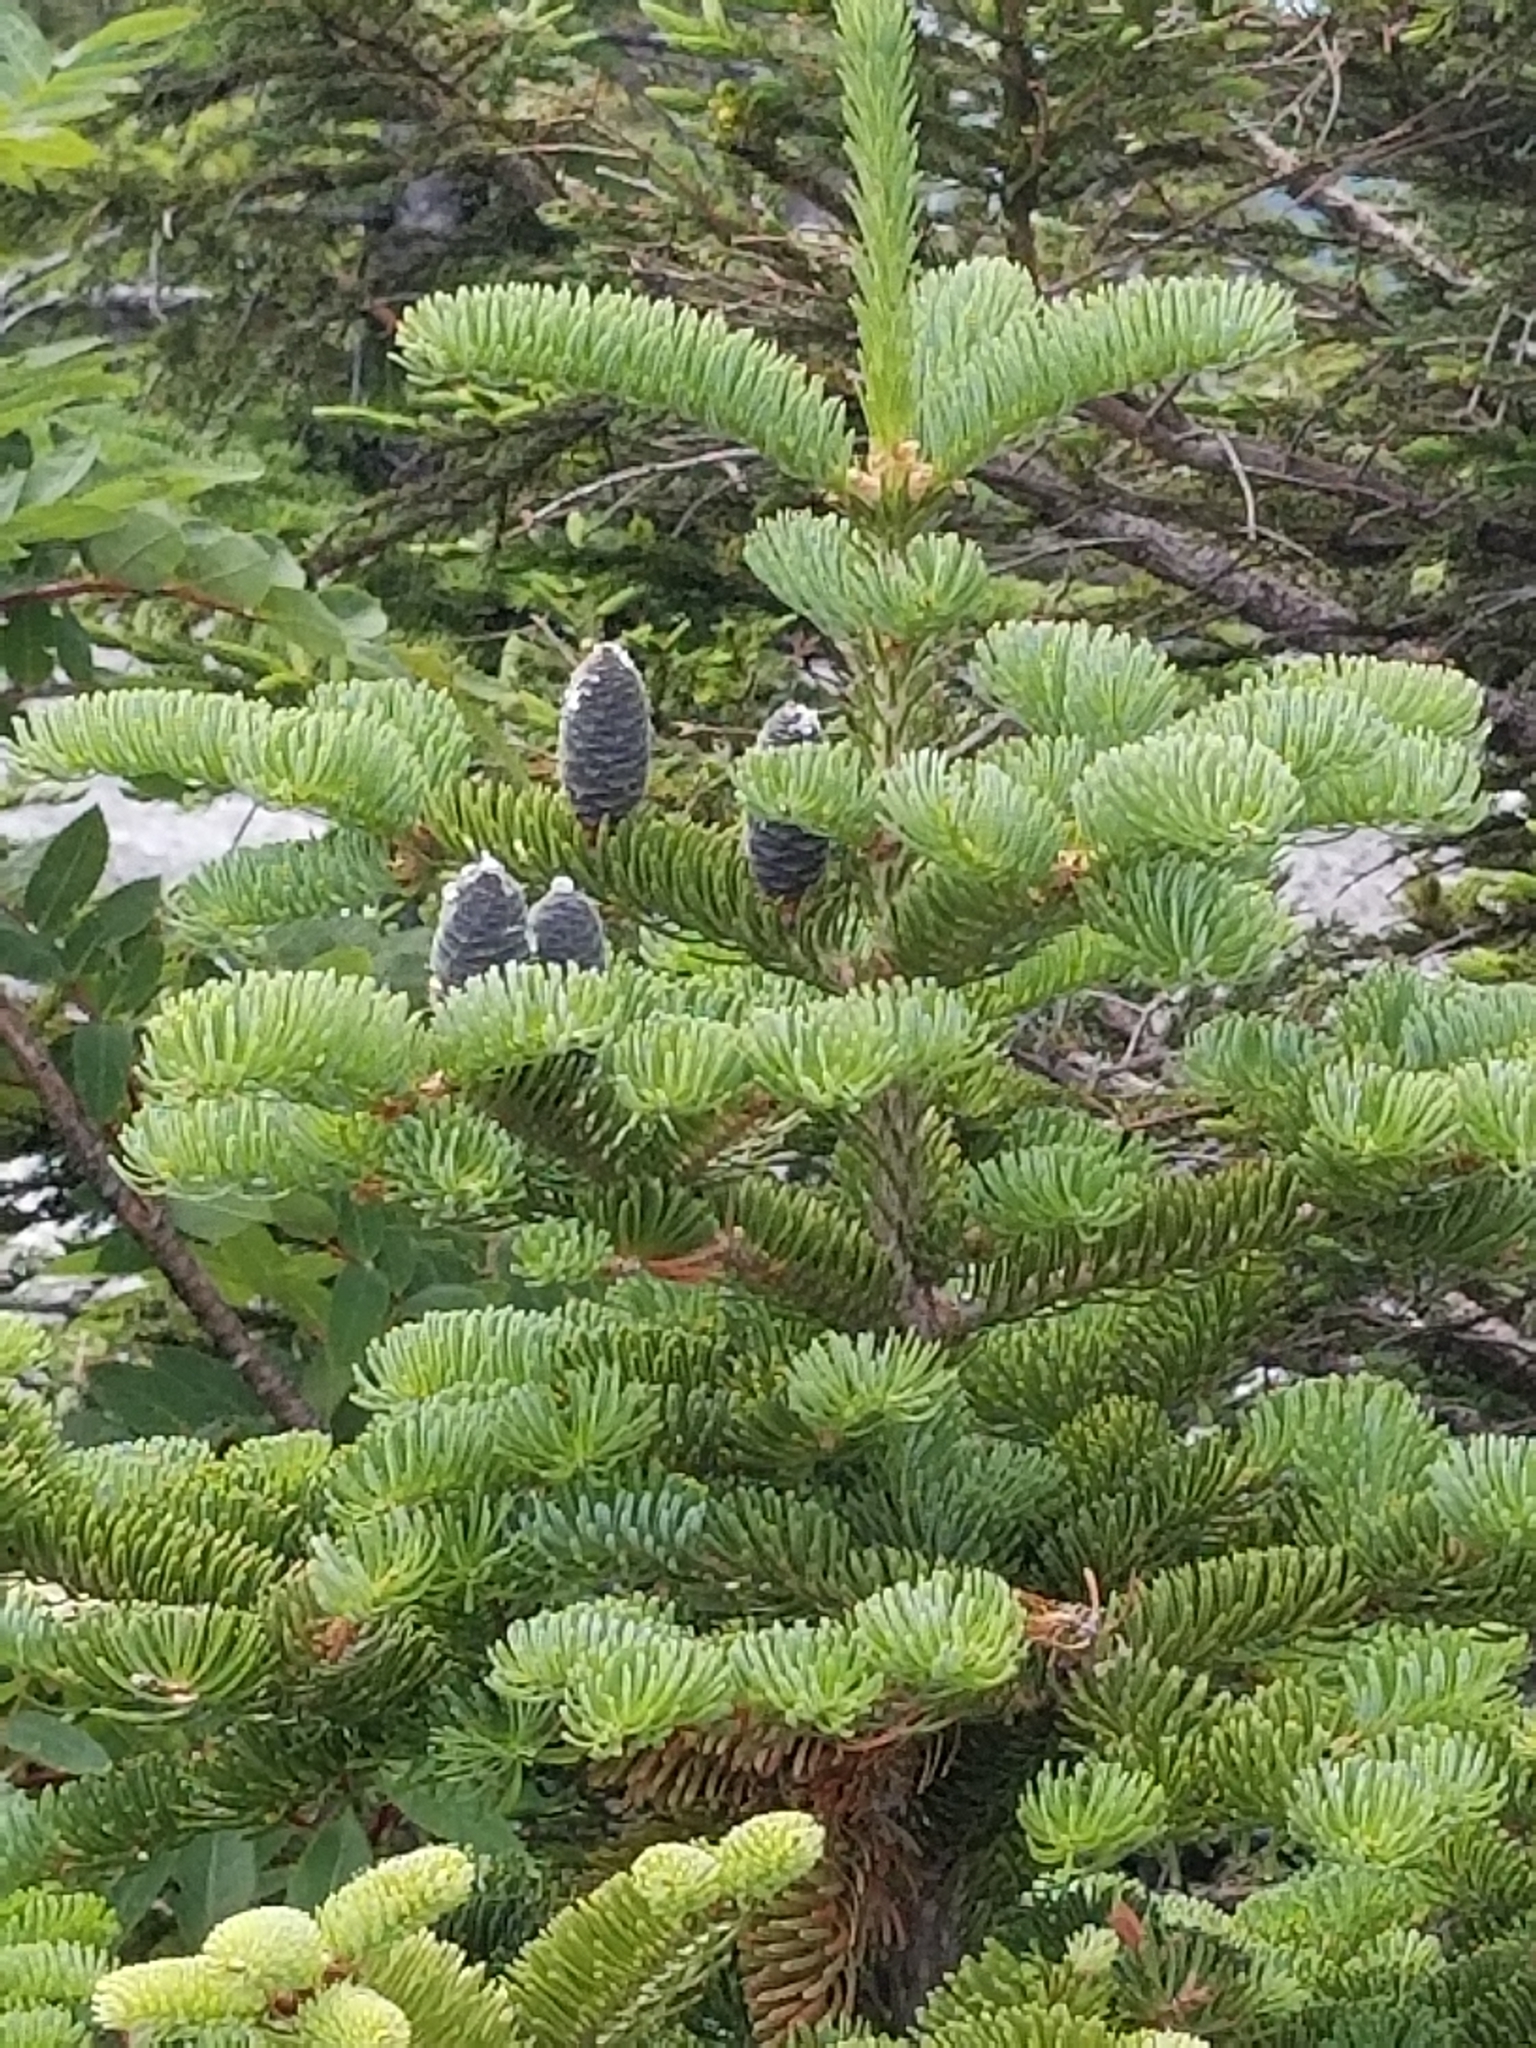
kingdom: Plantae
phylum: Tracheophyta
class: Pinopsida
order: Pinales
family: Pinaceae
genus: Abies
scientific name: Abies balsamea
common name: Balsam fir
